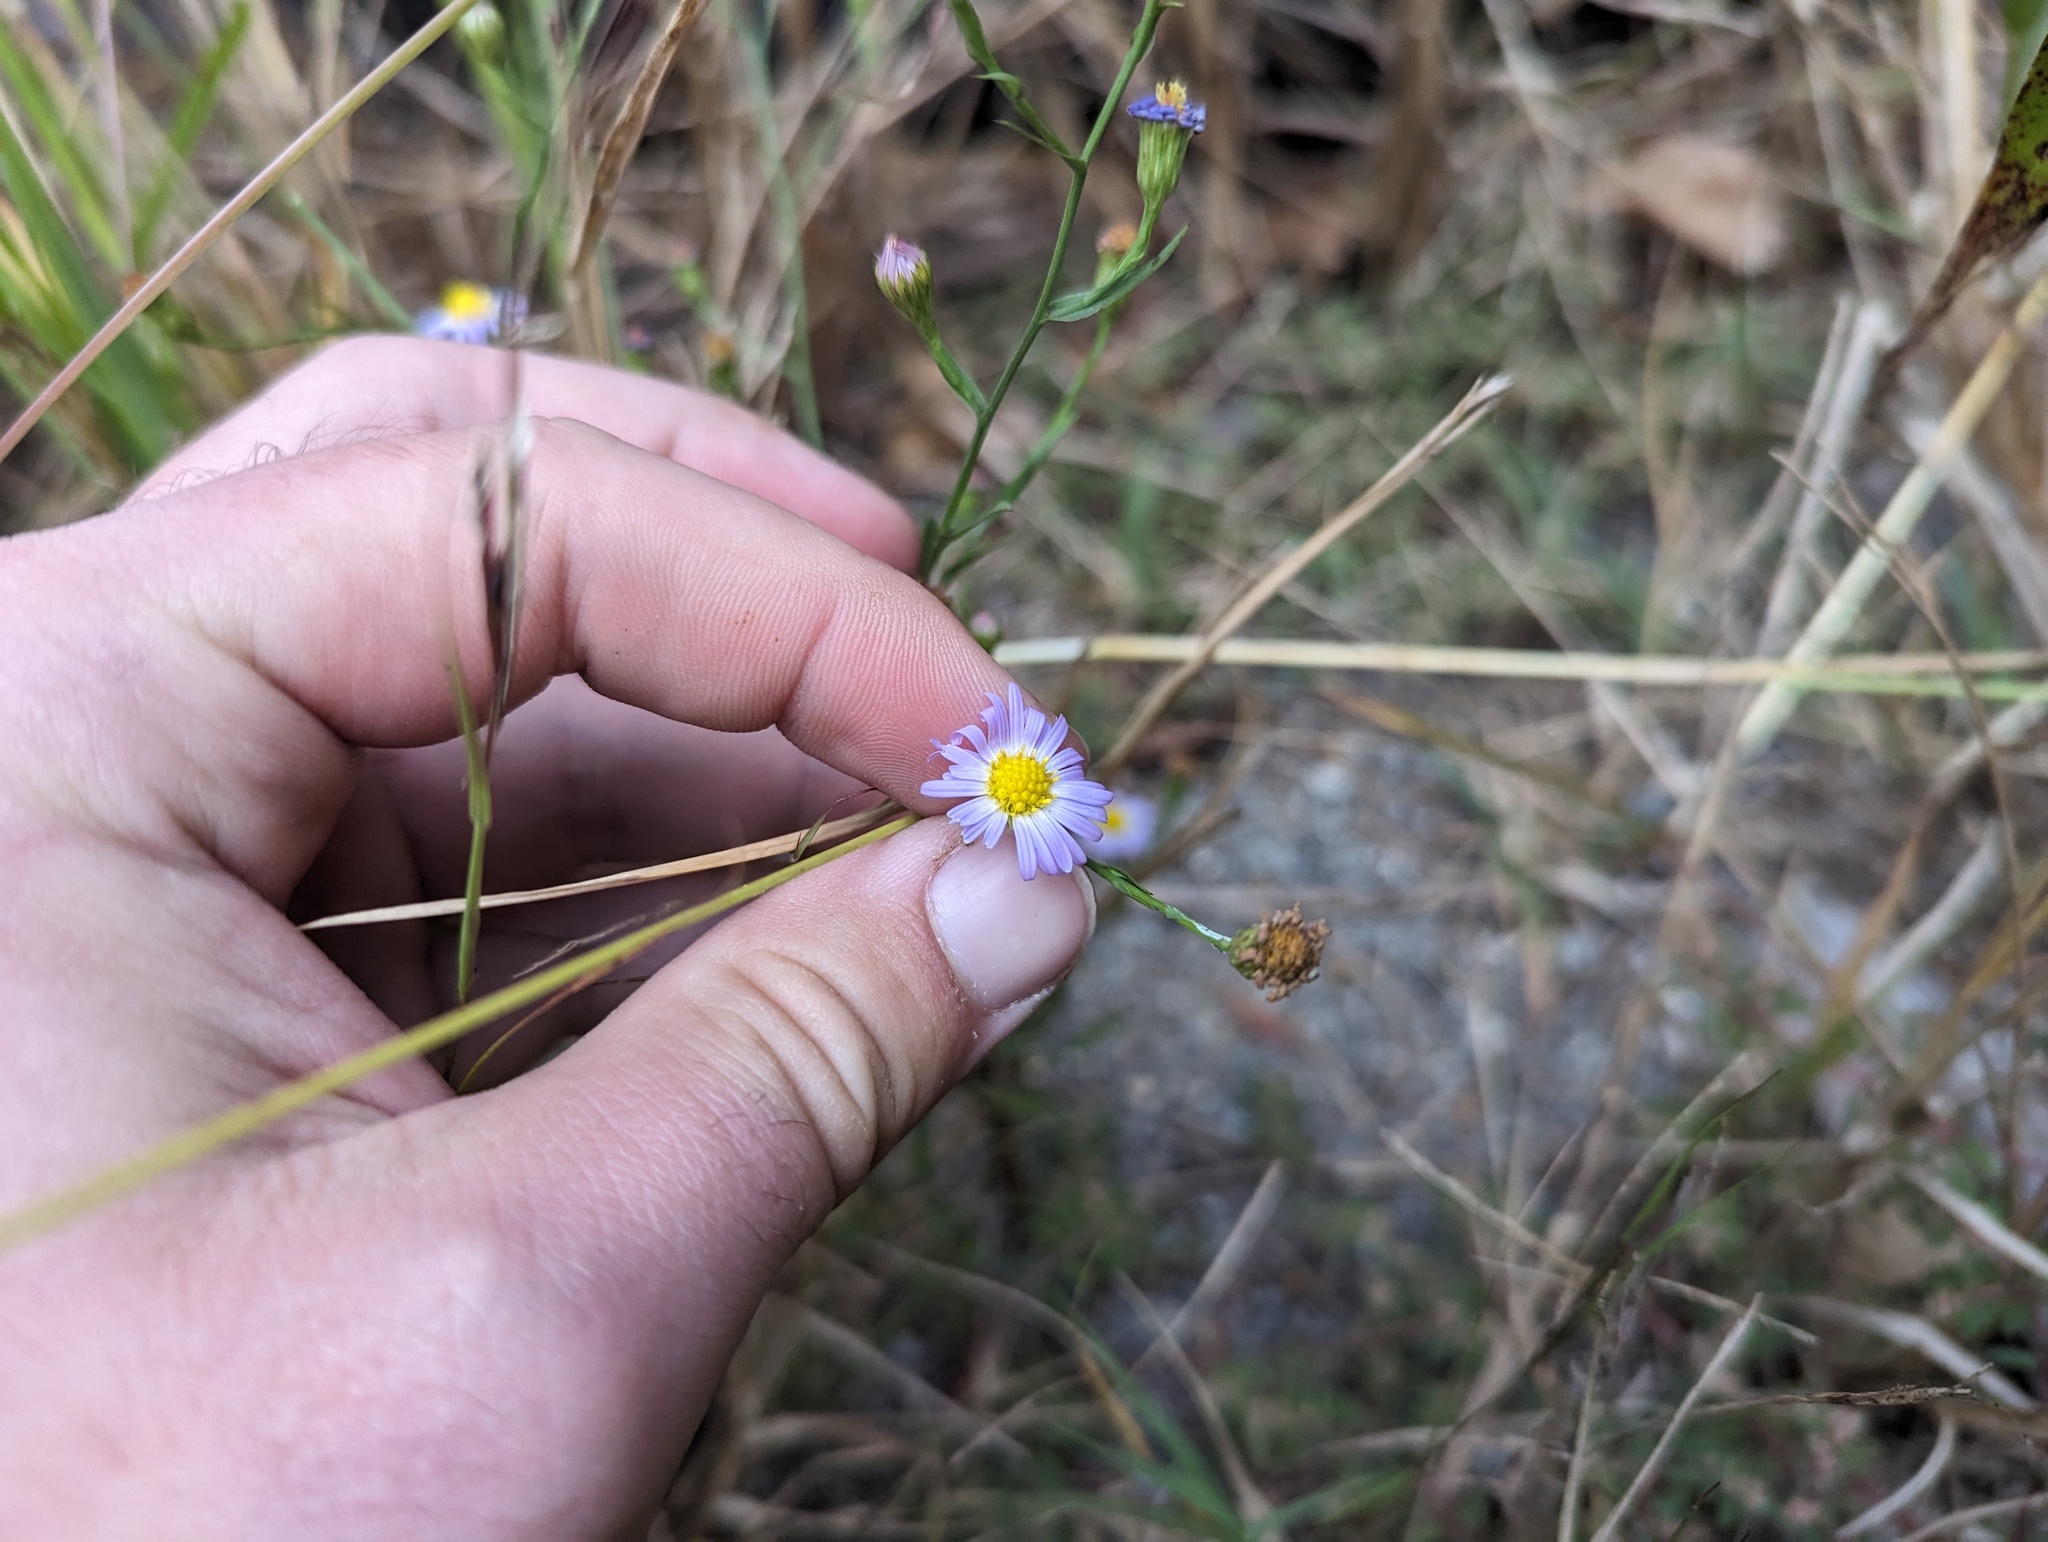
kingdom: Plantae
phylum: Tracheophyta
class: Magnoliopsida
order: Asterales
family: Asteraceae
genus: Symphyotrichum
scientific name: Symphyotrichum divaricatum
